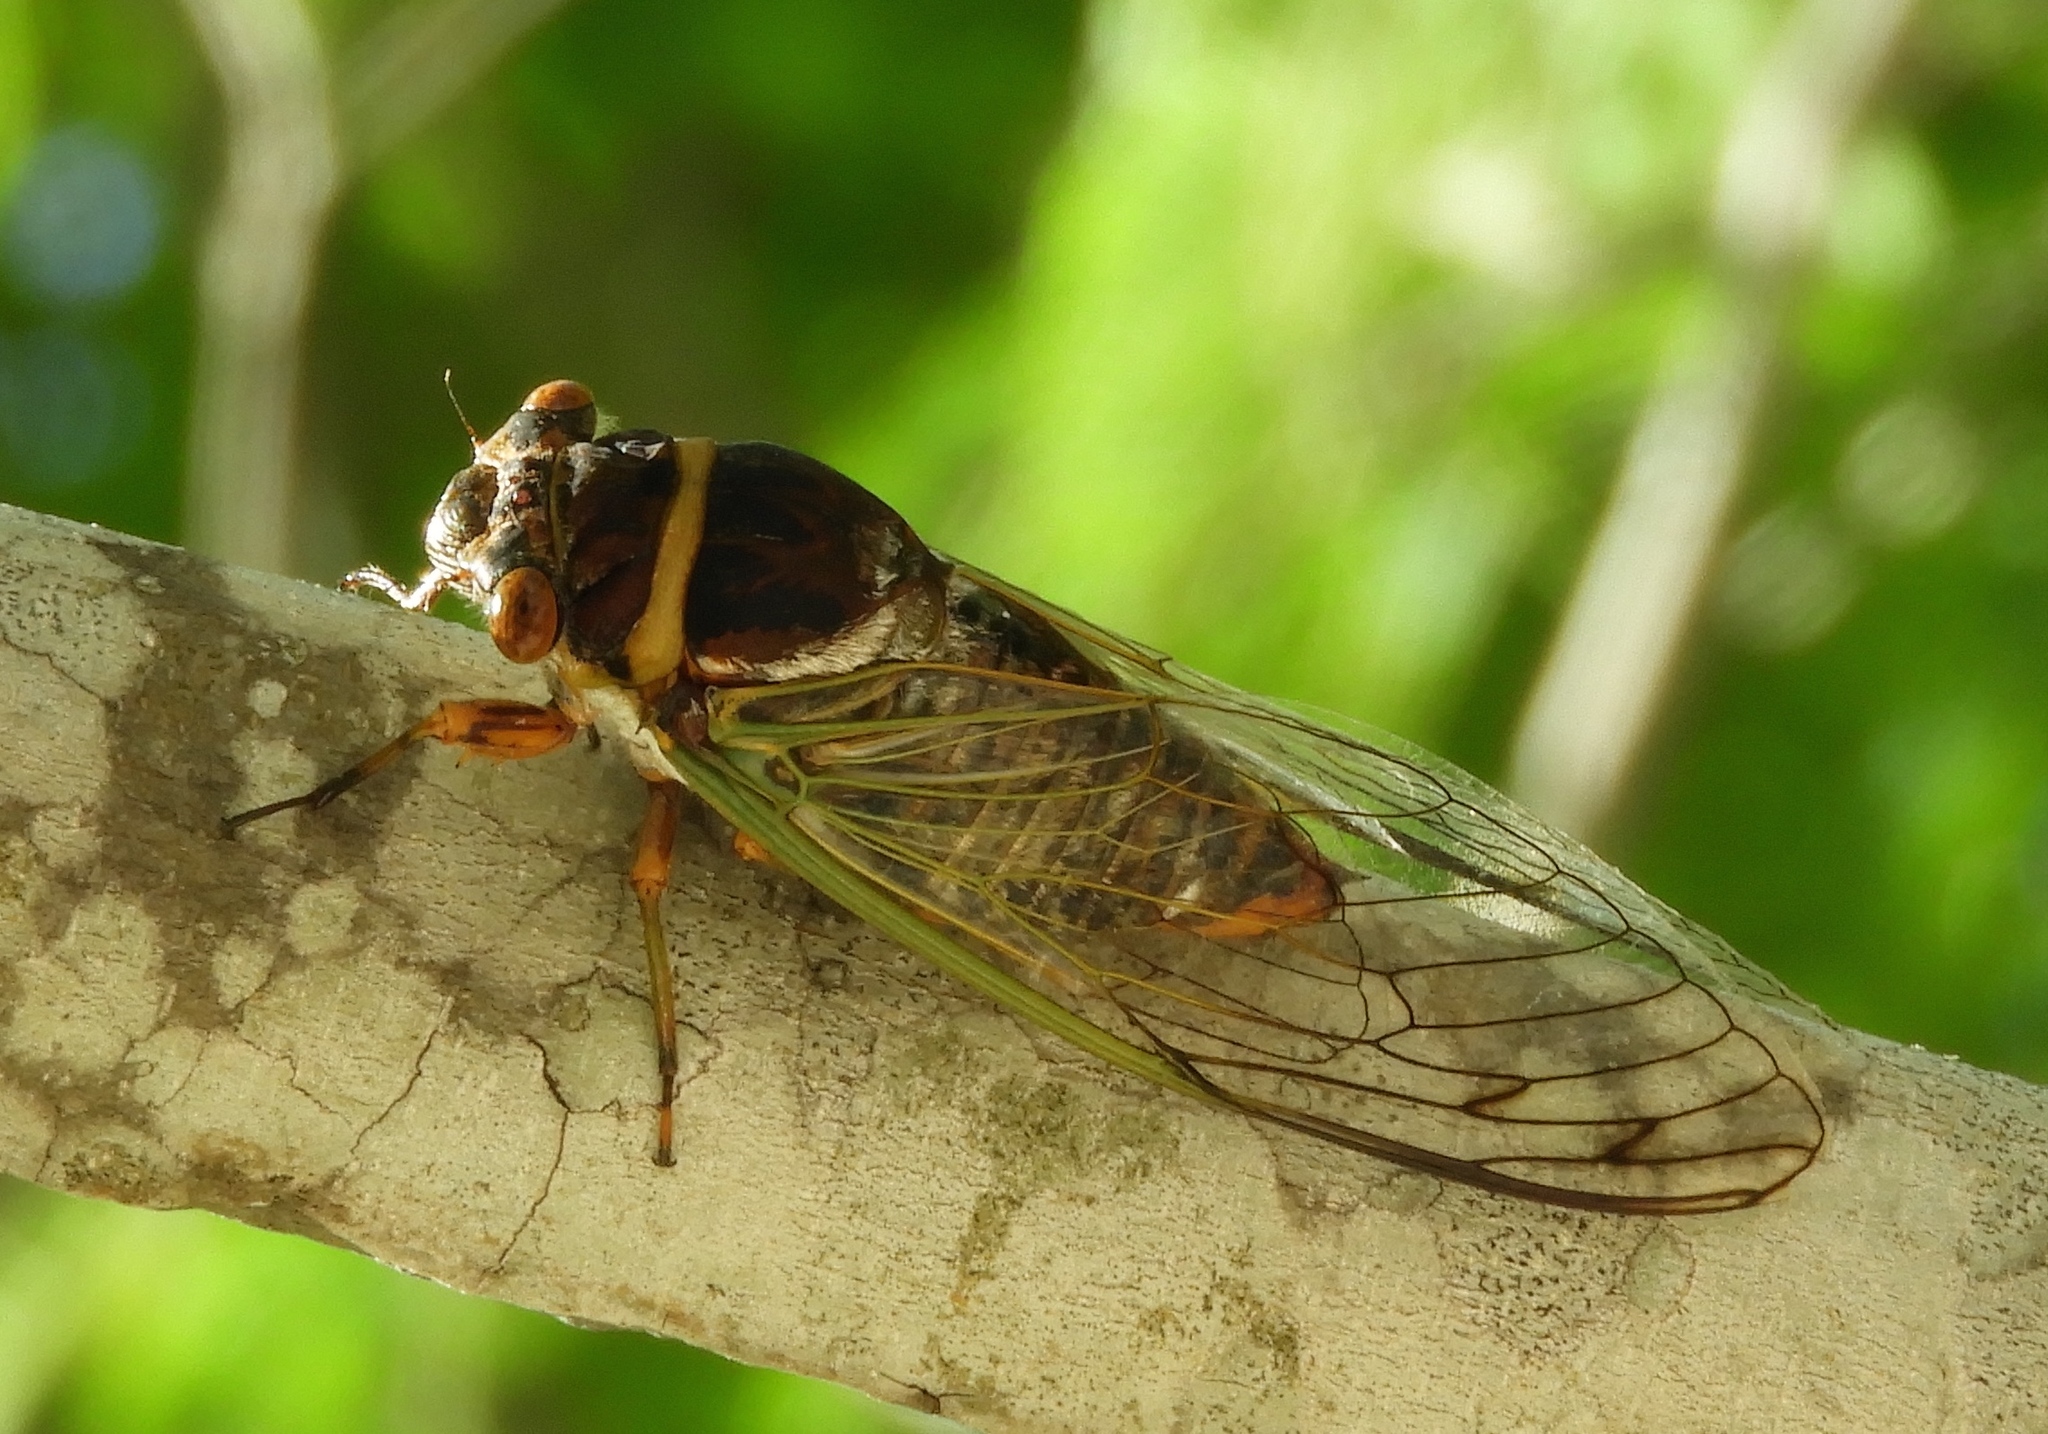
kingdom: Animalia
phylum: Arthropoda
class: Insecta
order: Hemiptera
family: Cicadidae
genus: Diceroprocta
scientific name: Diceroprocta bulgara
